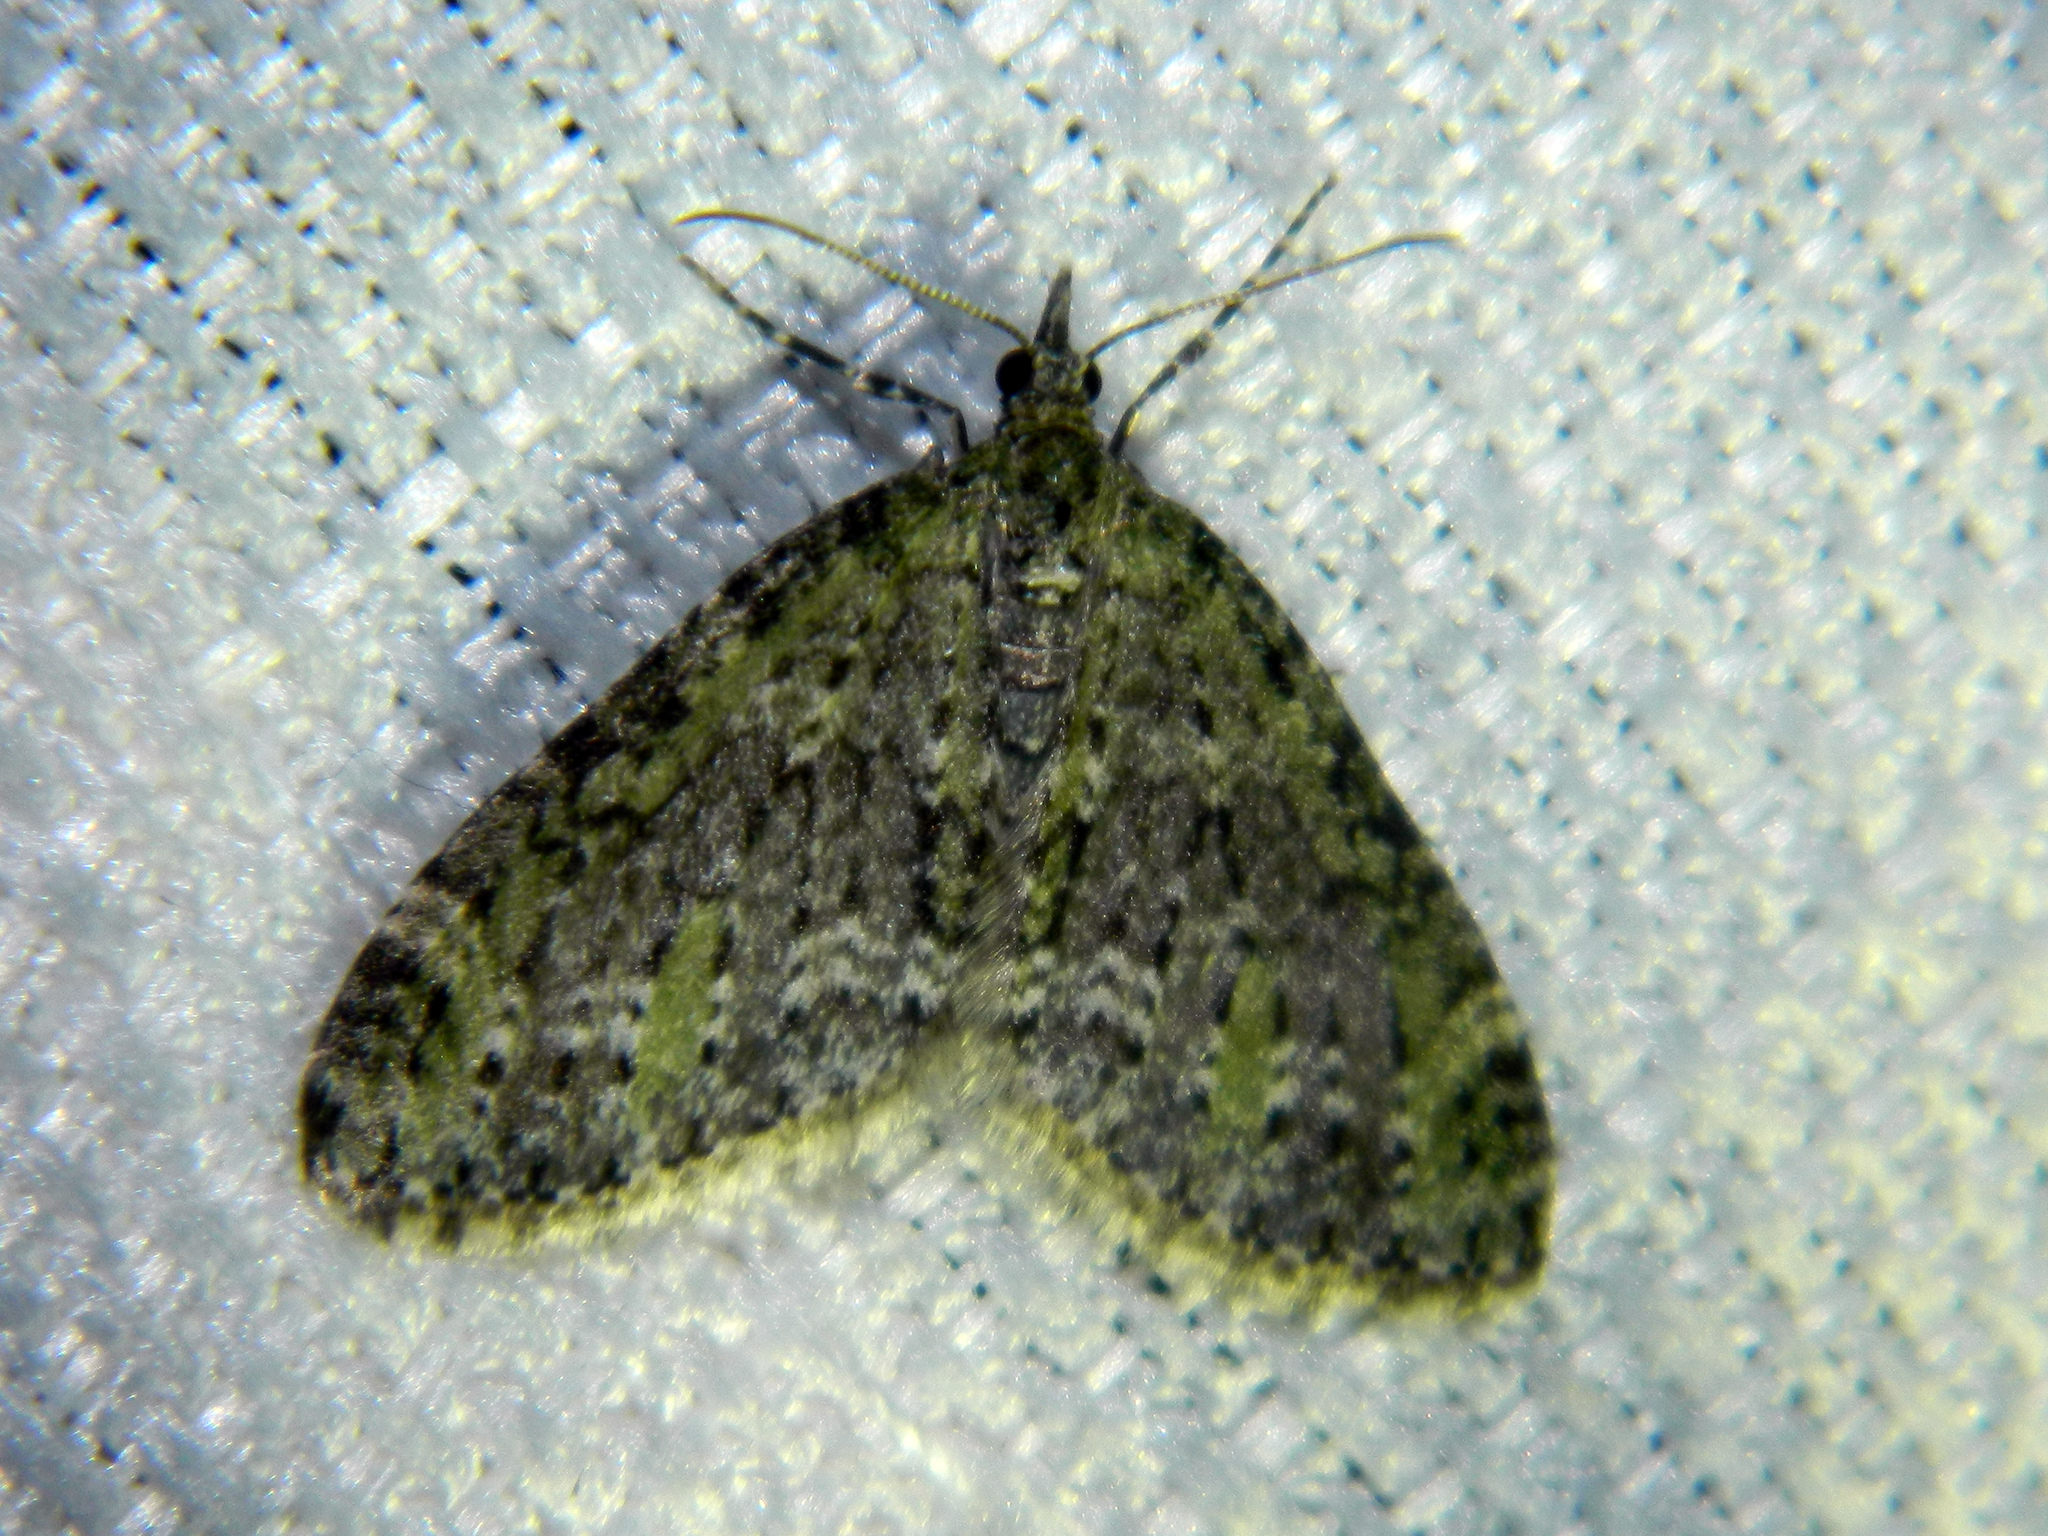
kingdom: Animalia
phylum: Arthropoda
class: Insecta
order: Lepidoptera
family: Geometridae
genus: Acasis
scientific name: Acasis viridata
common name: Olive-and-black carpet moth
